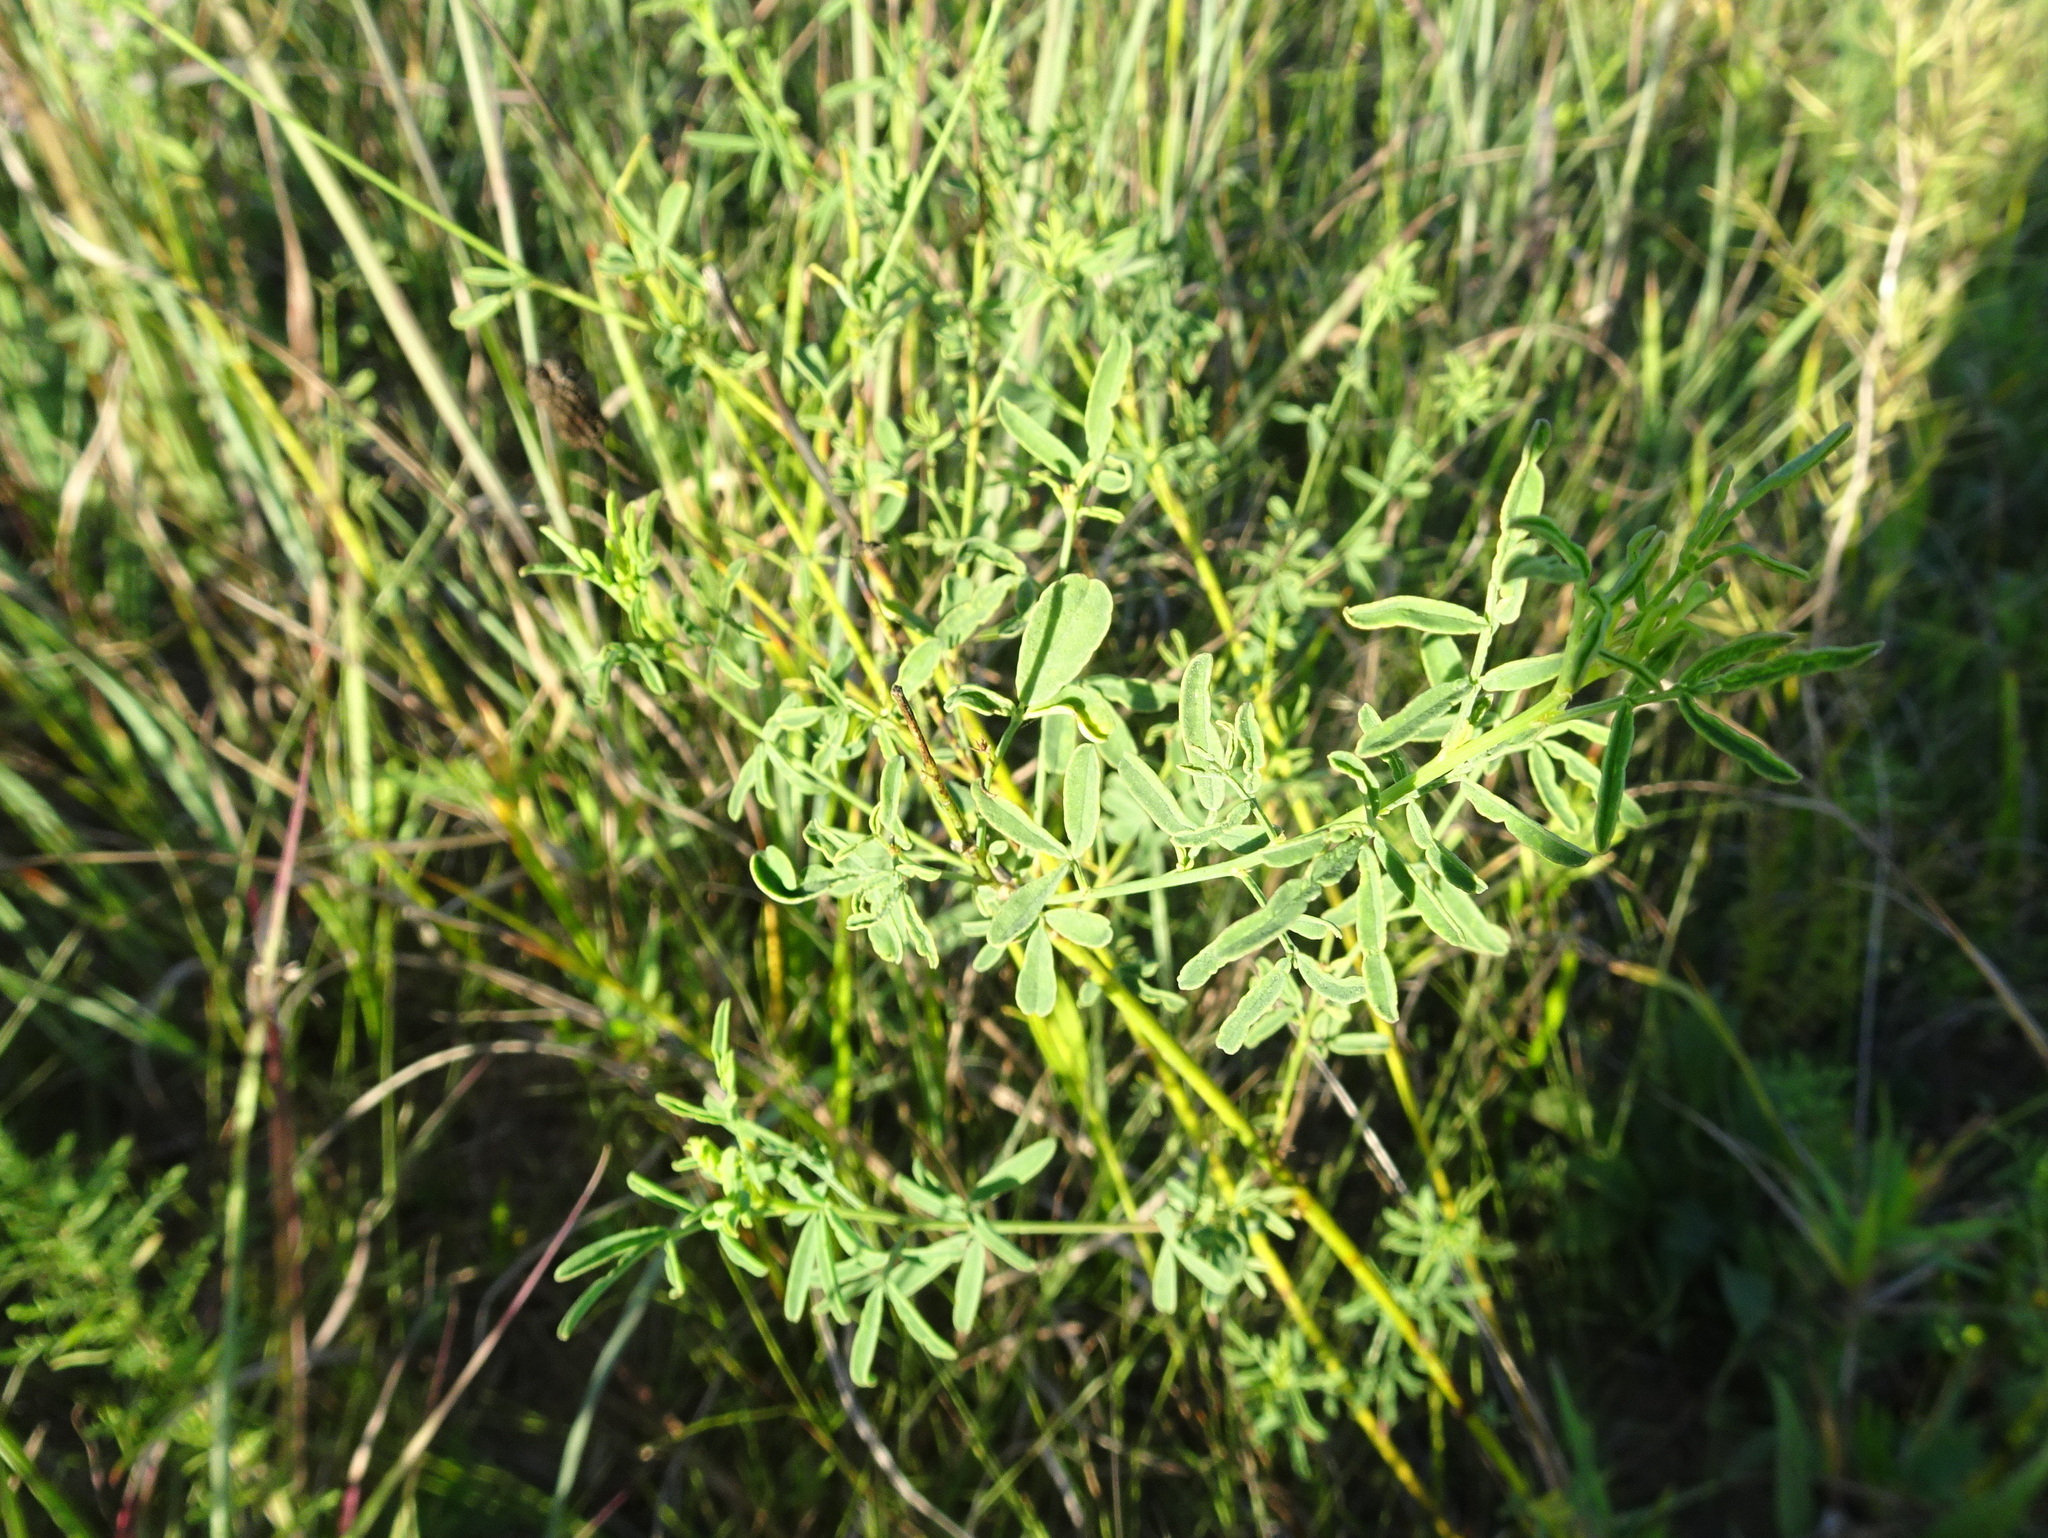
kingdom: Plantae
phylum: Tracheophyta
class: Magnoliopsida
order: Fabales
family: Fabaceae
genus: Dalea
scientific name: Dalea multiflora
